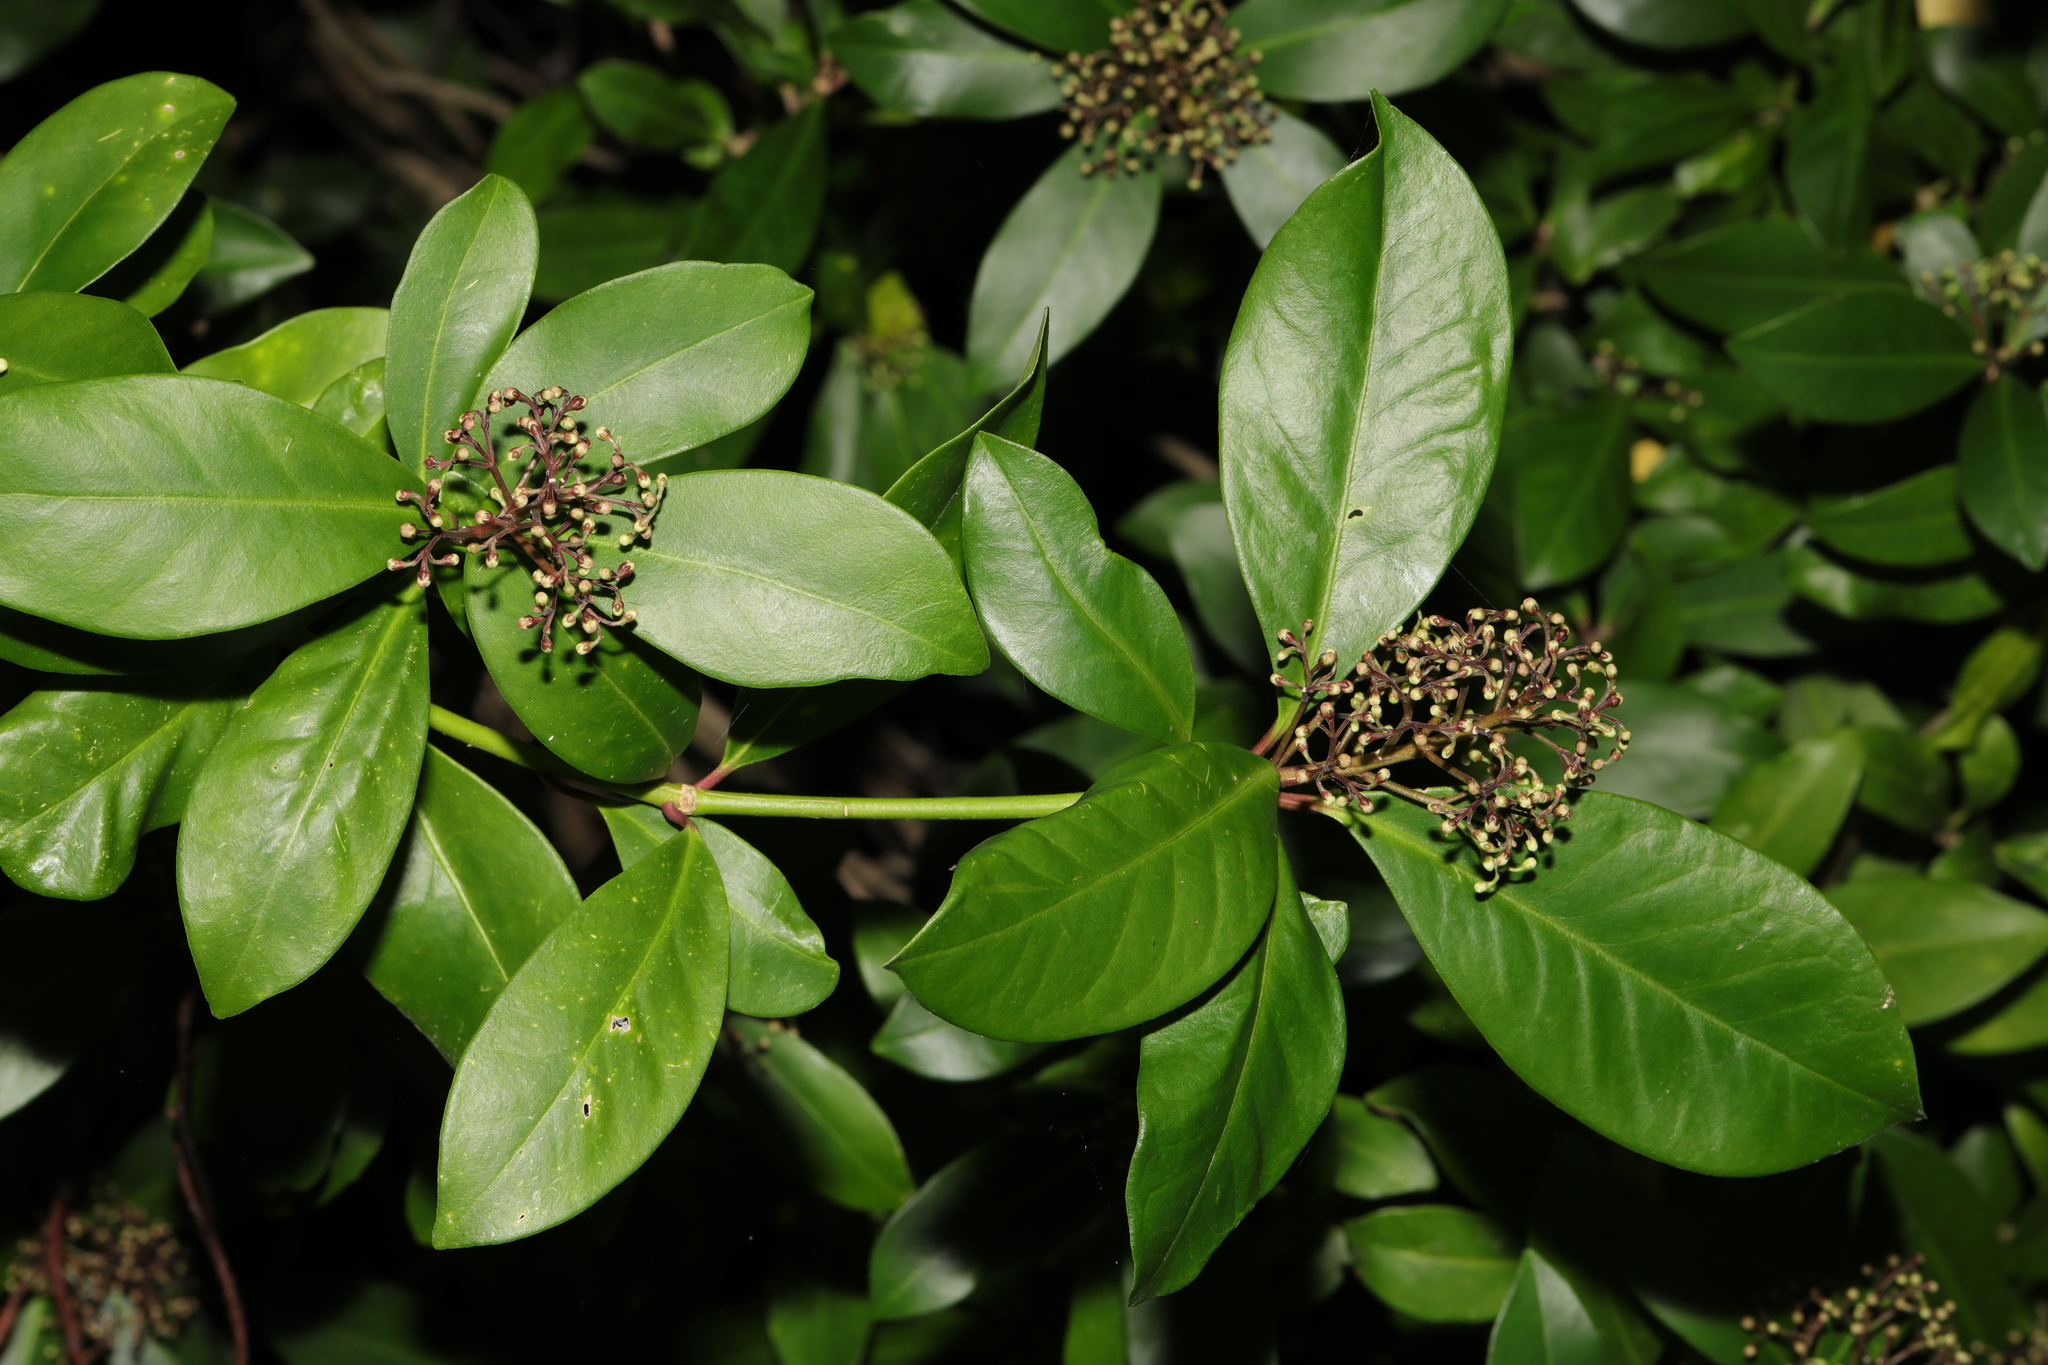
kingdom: Plantae
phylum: Tracheophyta
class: Magnoliopsida
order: Sapindales
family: Rutaceae
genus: Skimmia
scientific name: Skimmia japonica
